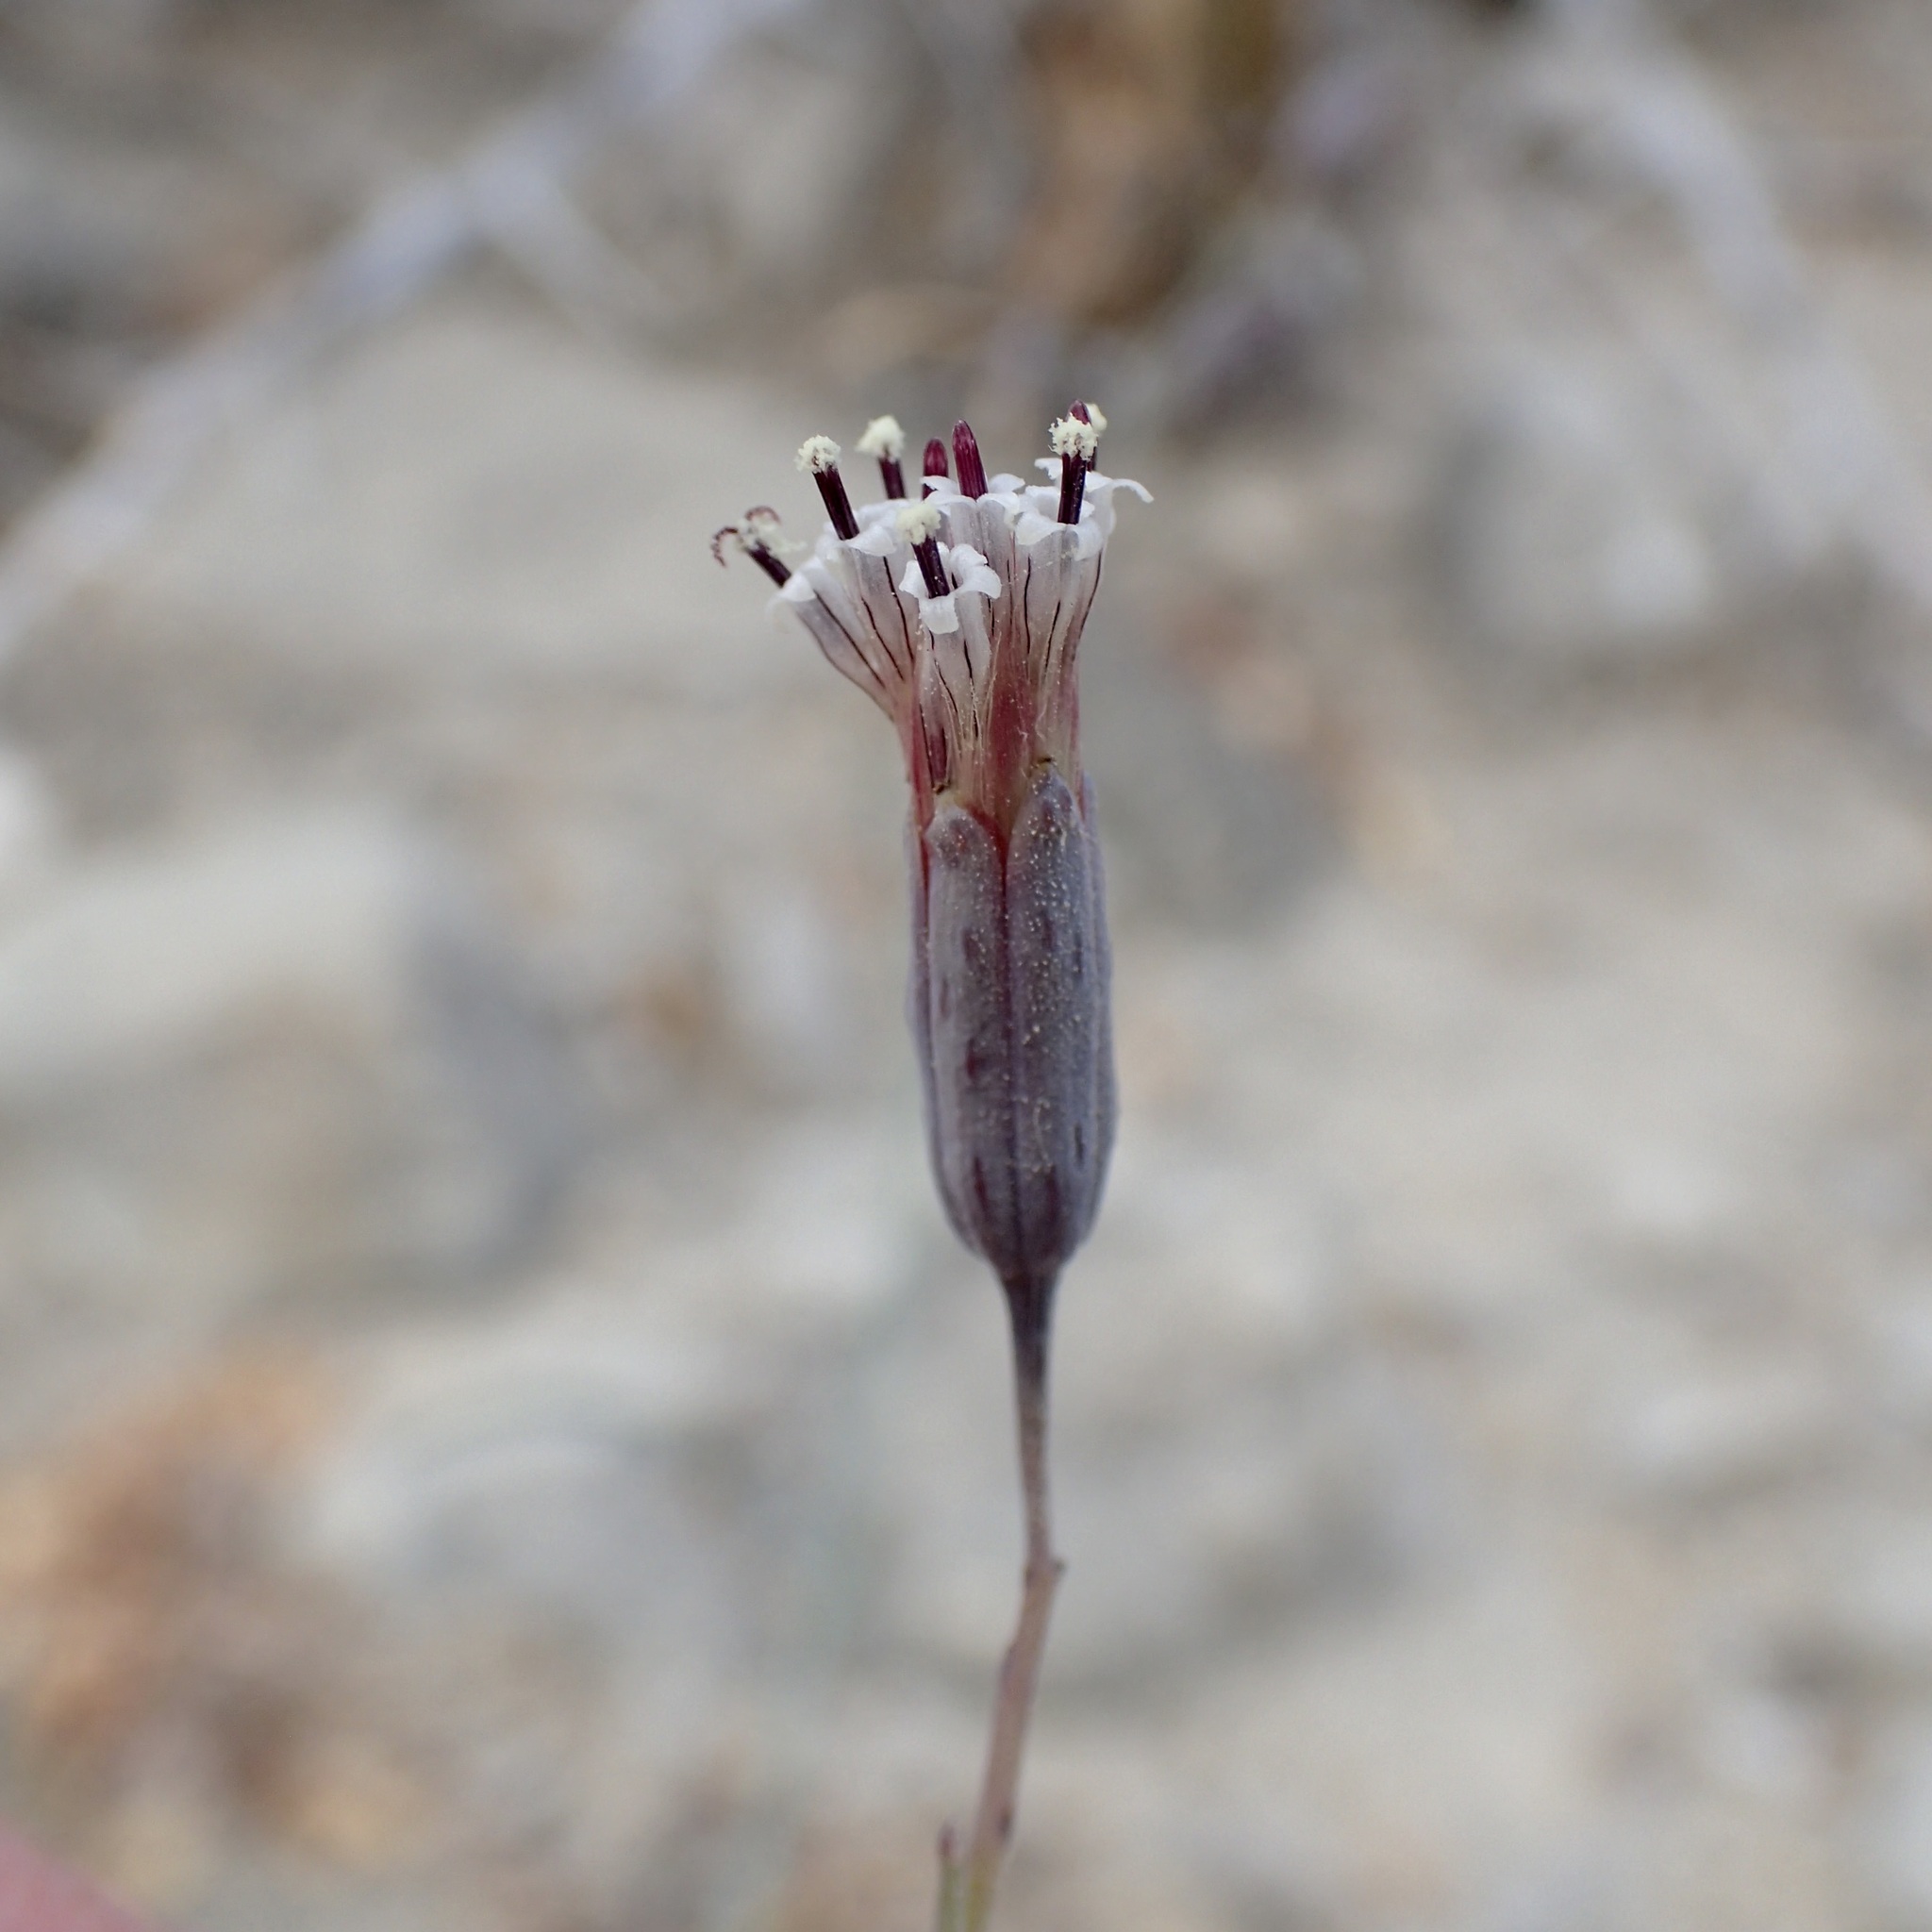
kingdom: Plantae
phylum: Tracheophyta
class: Magnoliopsida
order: Asterales
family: Asteraceae
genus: Porophyllum
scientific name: Porophyllum gracile
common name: Odora
